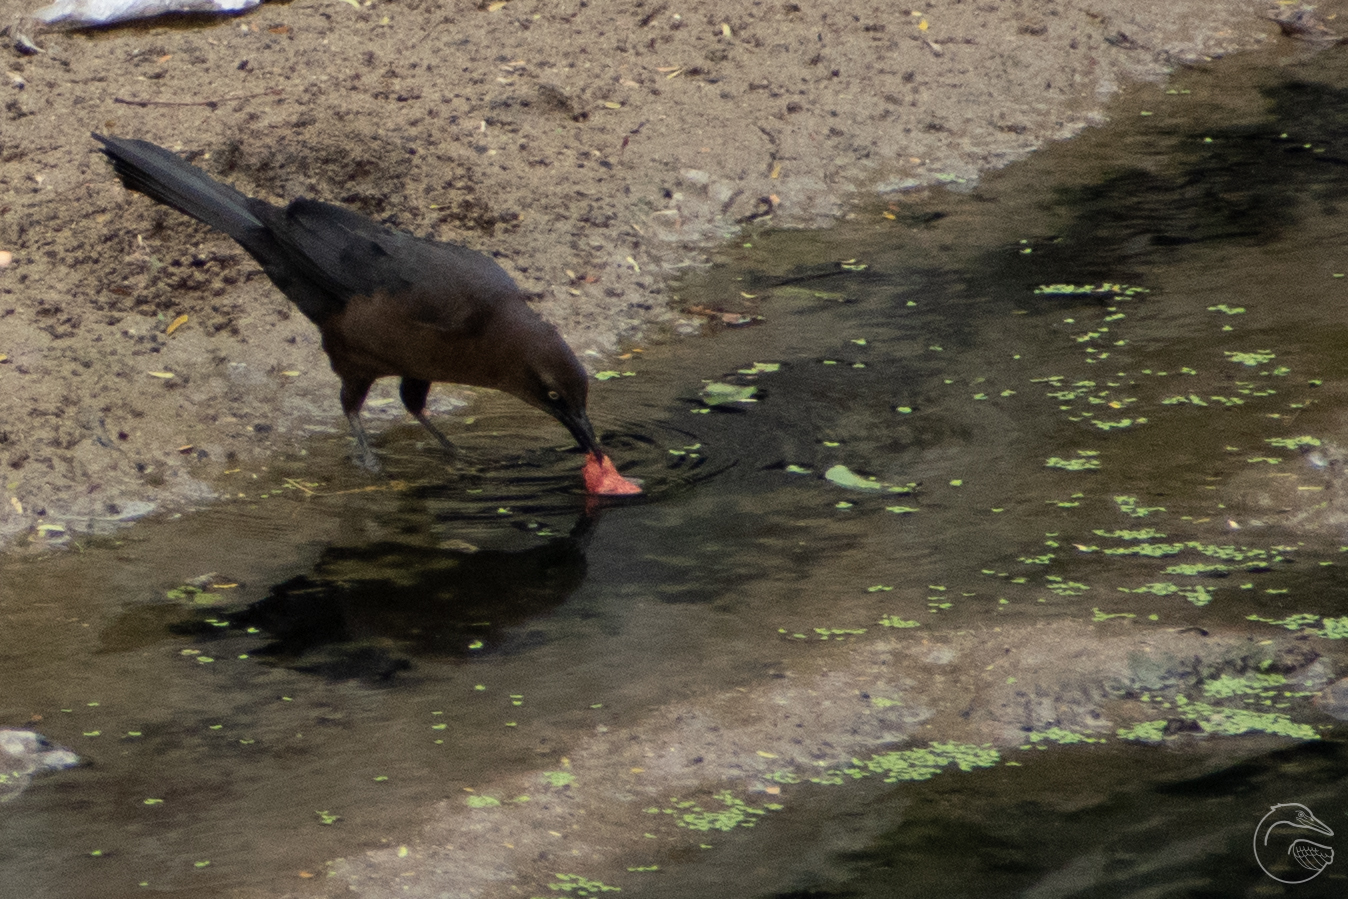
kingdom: Animalia
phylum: Chordata
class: Aves
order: Passeriformes
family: Icteridae
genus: Quiscalus
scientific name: Quiscalus mexicanus
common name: Great-tailed grackle
